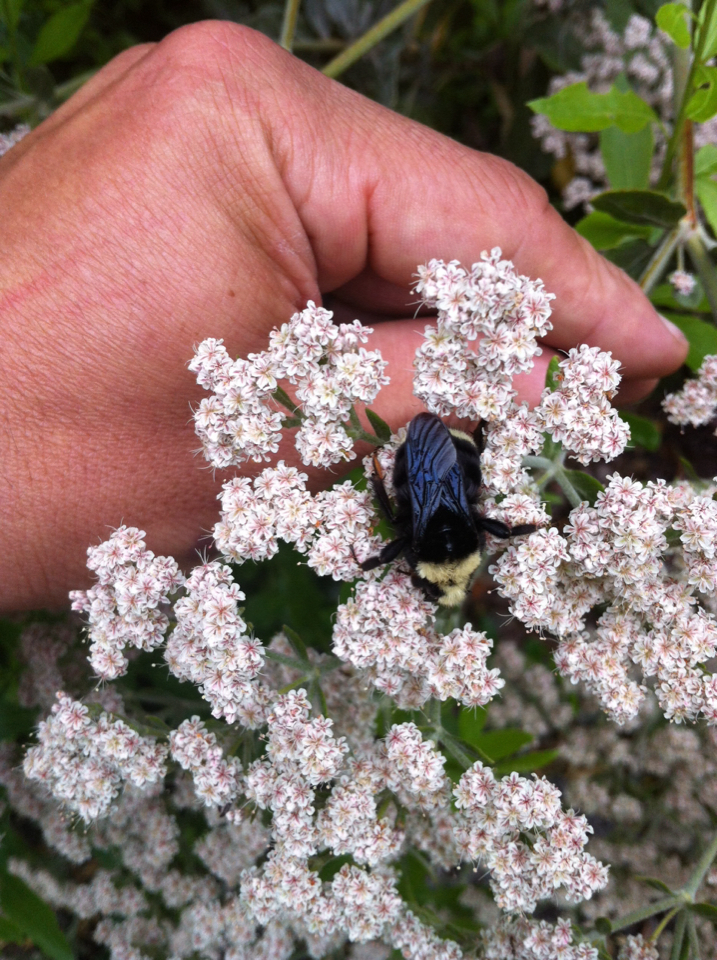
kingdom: Animalia
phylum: Arthropoda
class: Insecta
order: Hymenoptera
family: Apidae
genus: Pyrobombus
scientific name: Pyrobombus
